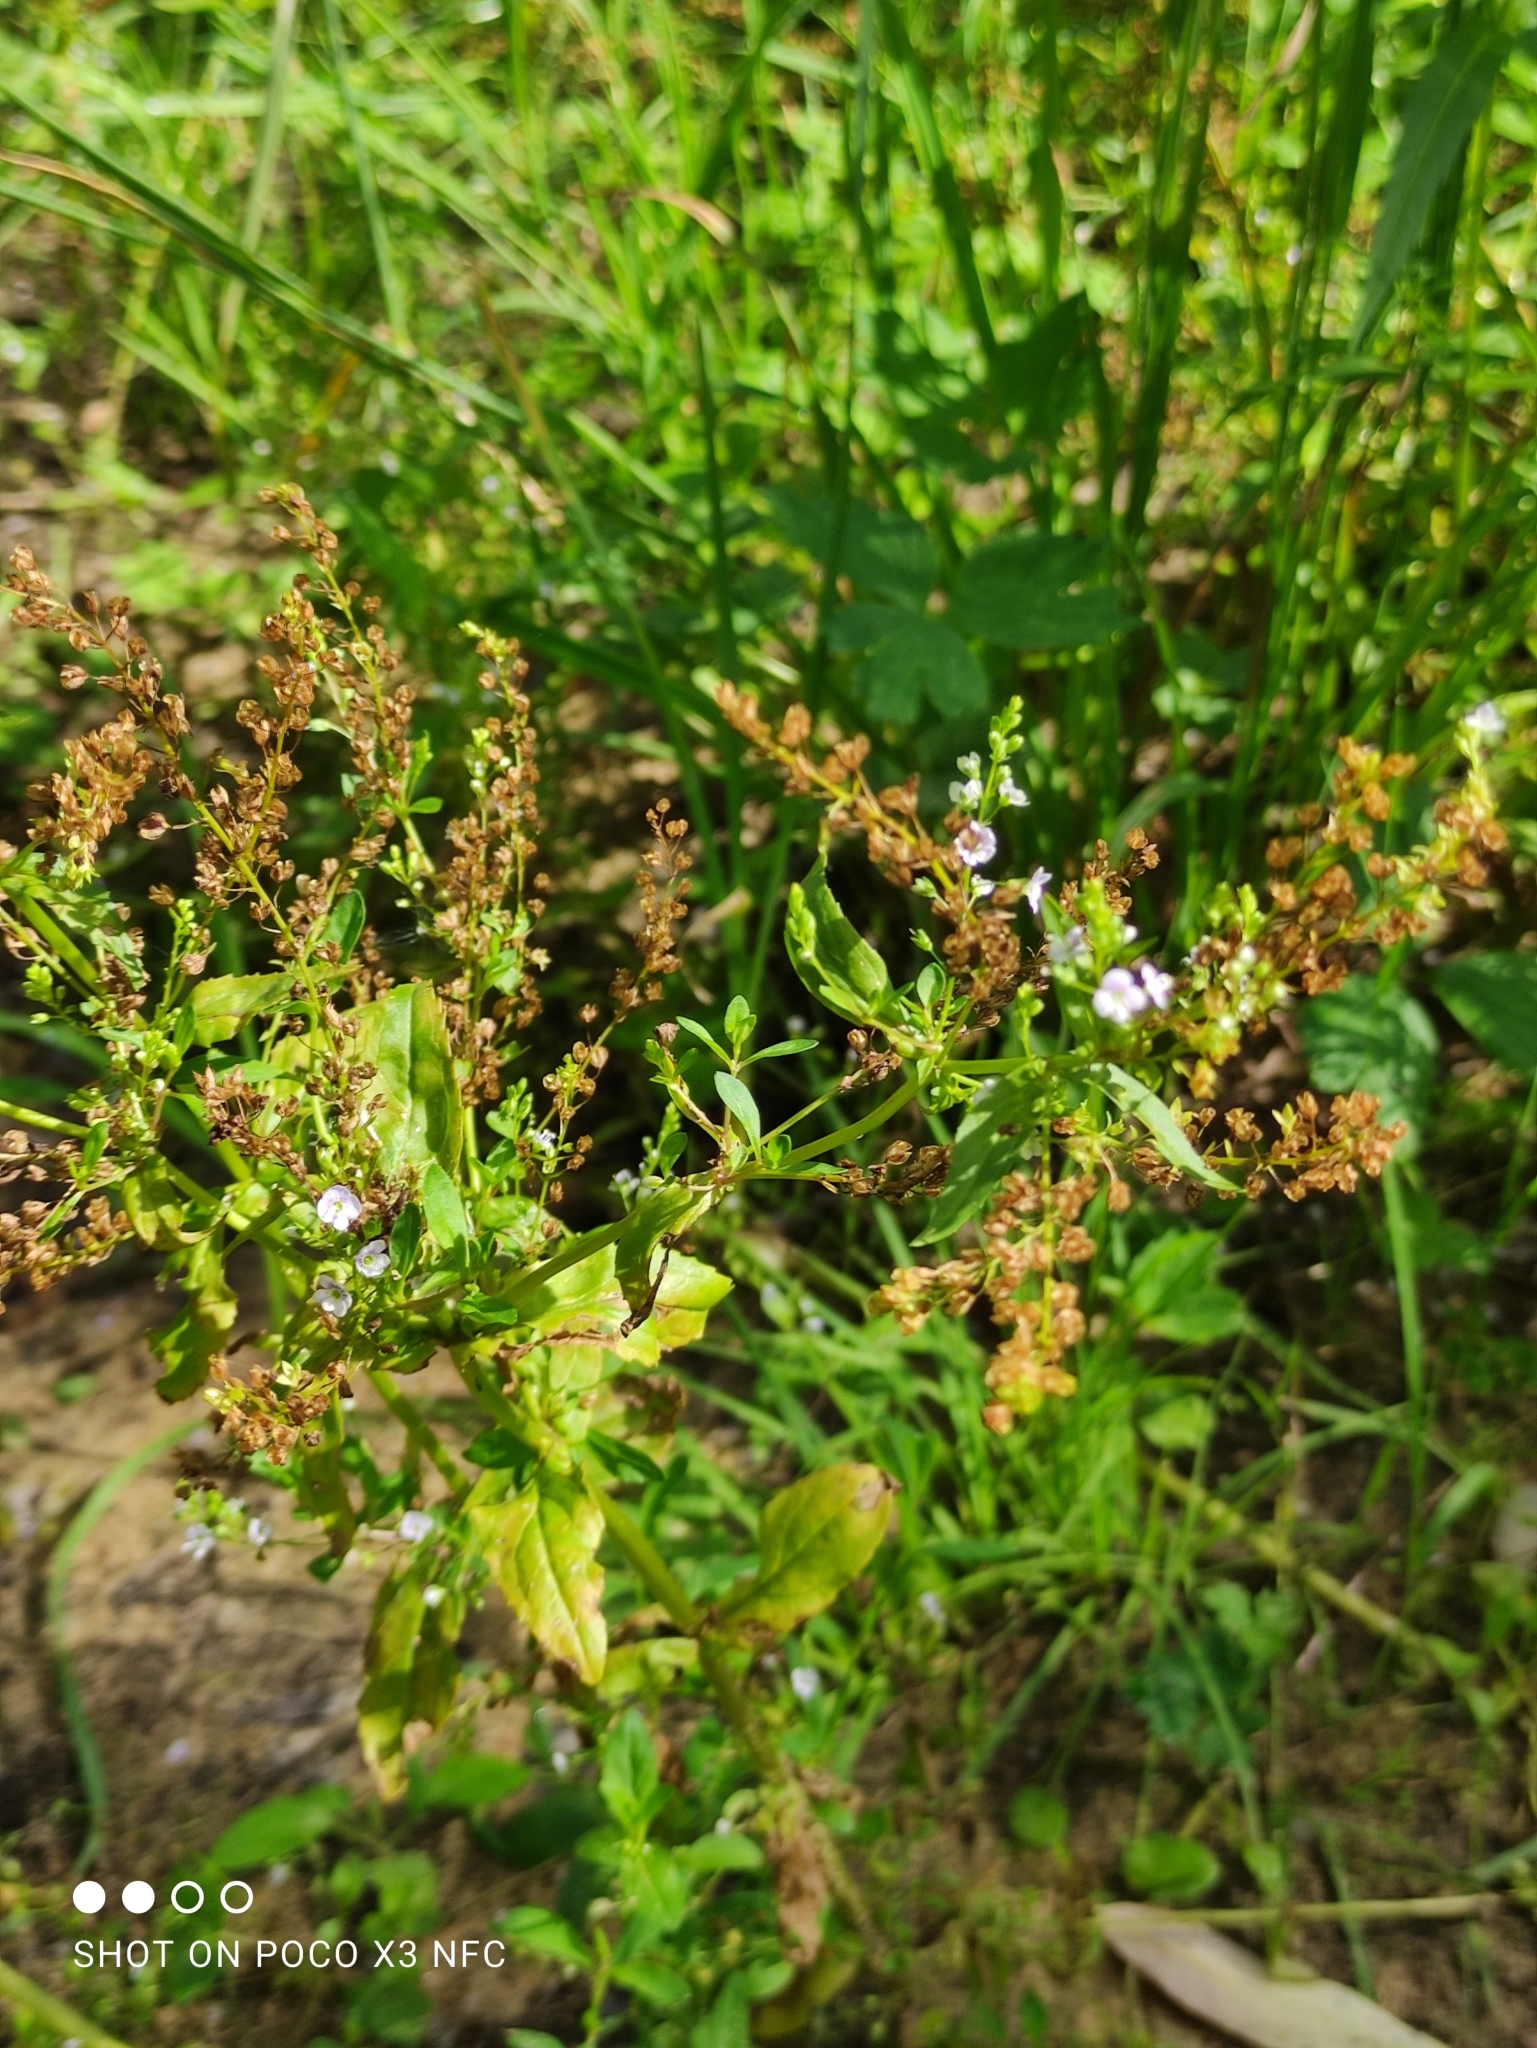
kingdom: Plantae
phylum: Tracheophyta
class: Magnoliopsida
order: Lamiales
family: Plantaginaceae
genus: Veronica
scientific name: Veronica anagallis-aquatica
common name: Water speedwell
